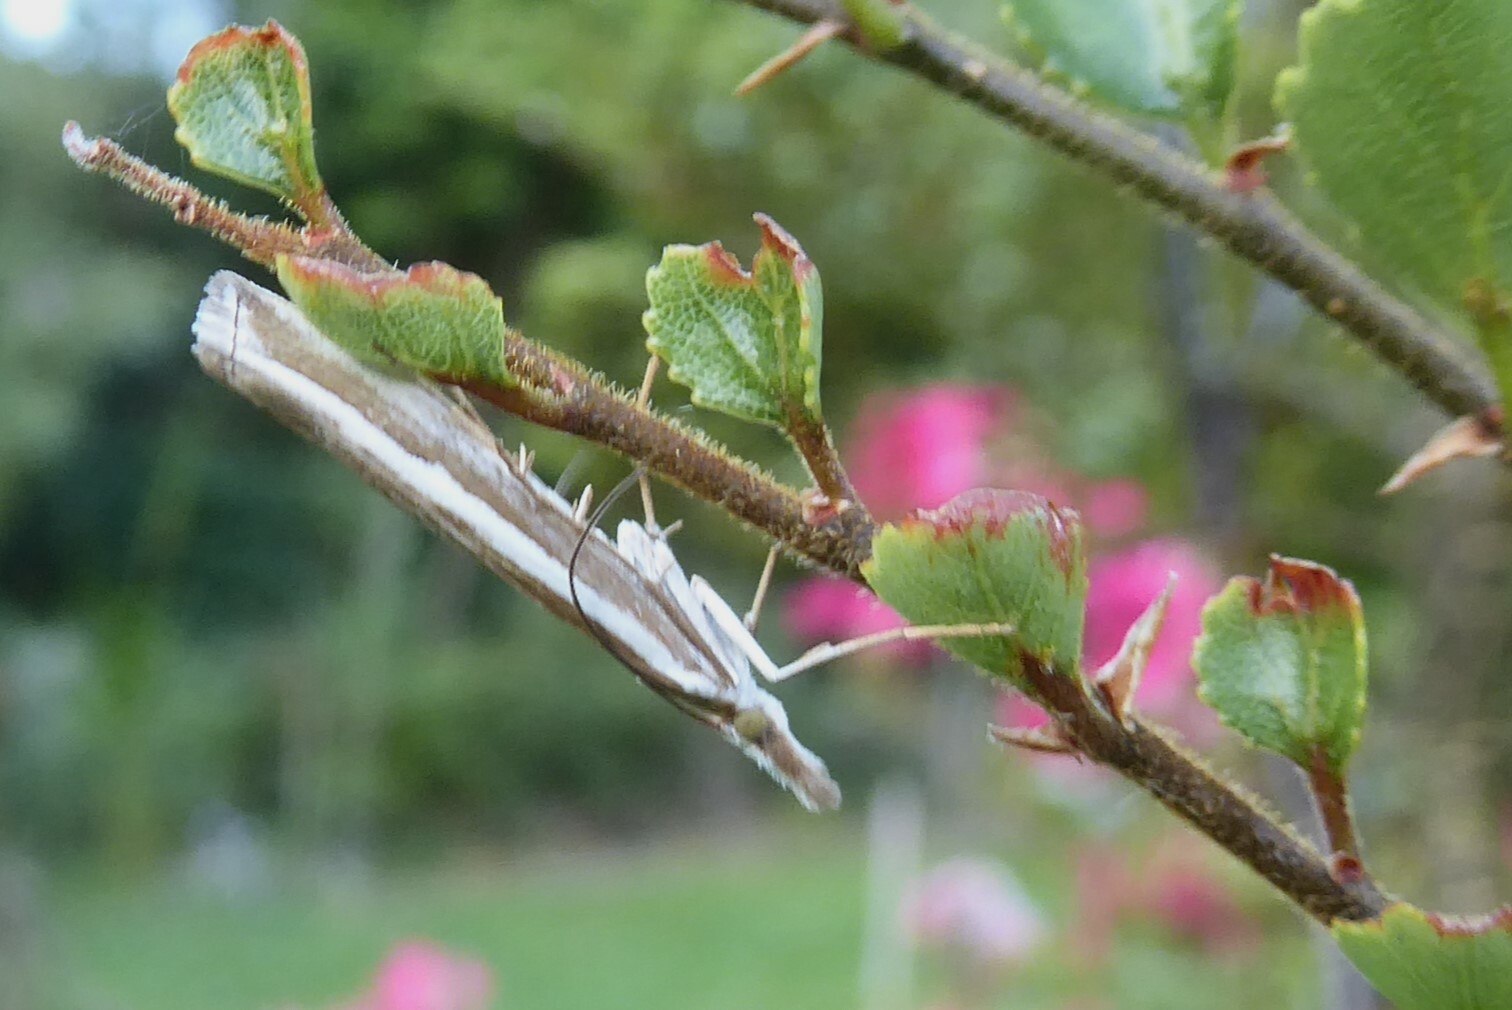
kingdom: Animalia
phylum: Arthropoda
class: Insecta
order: Lepidoptera
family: Crambidae
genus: Orocrambus
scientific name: Orocrambus vittellus
